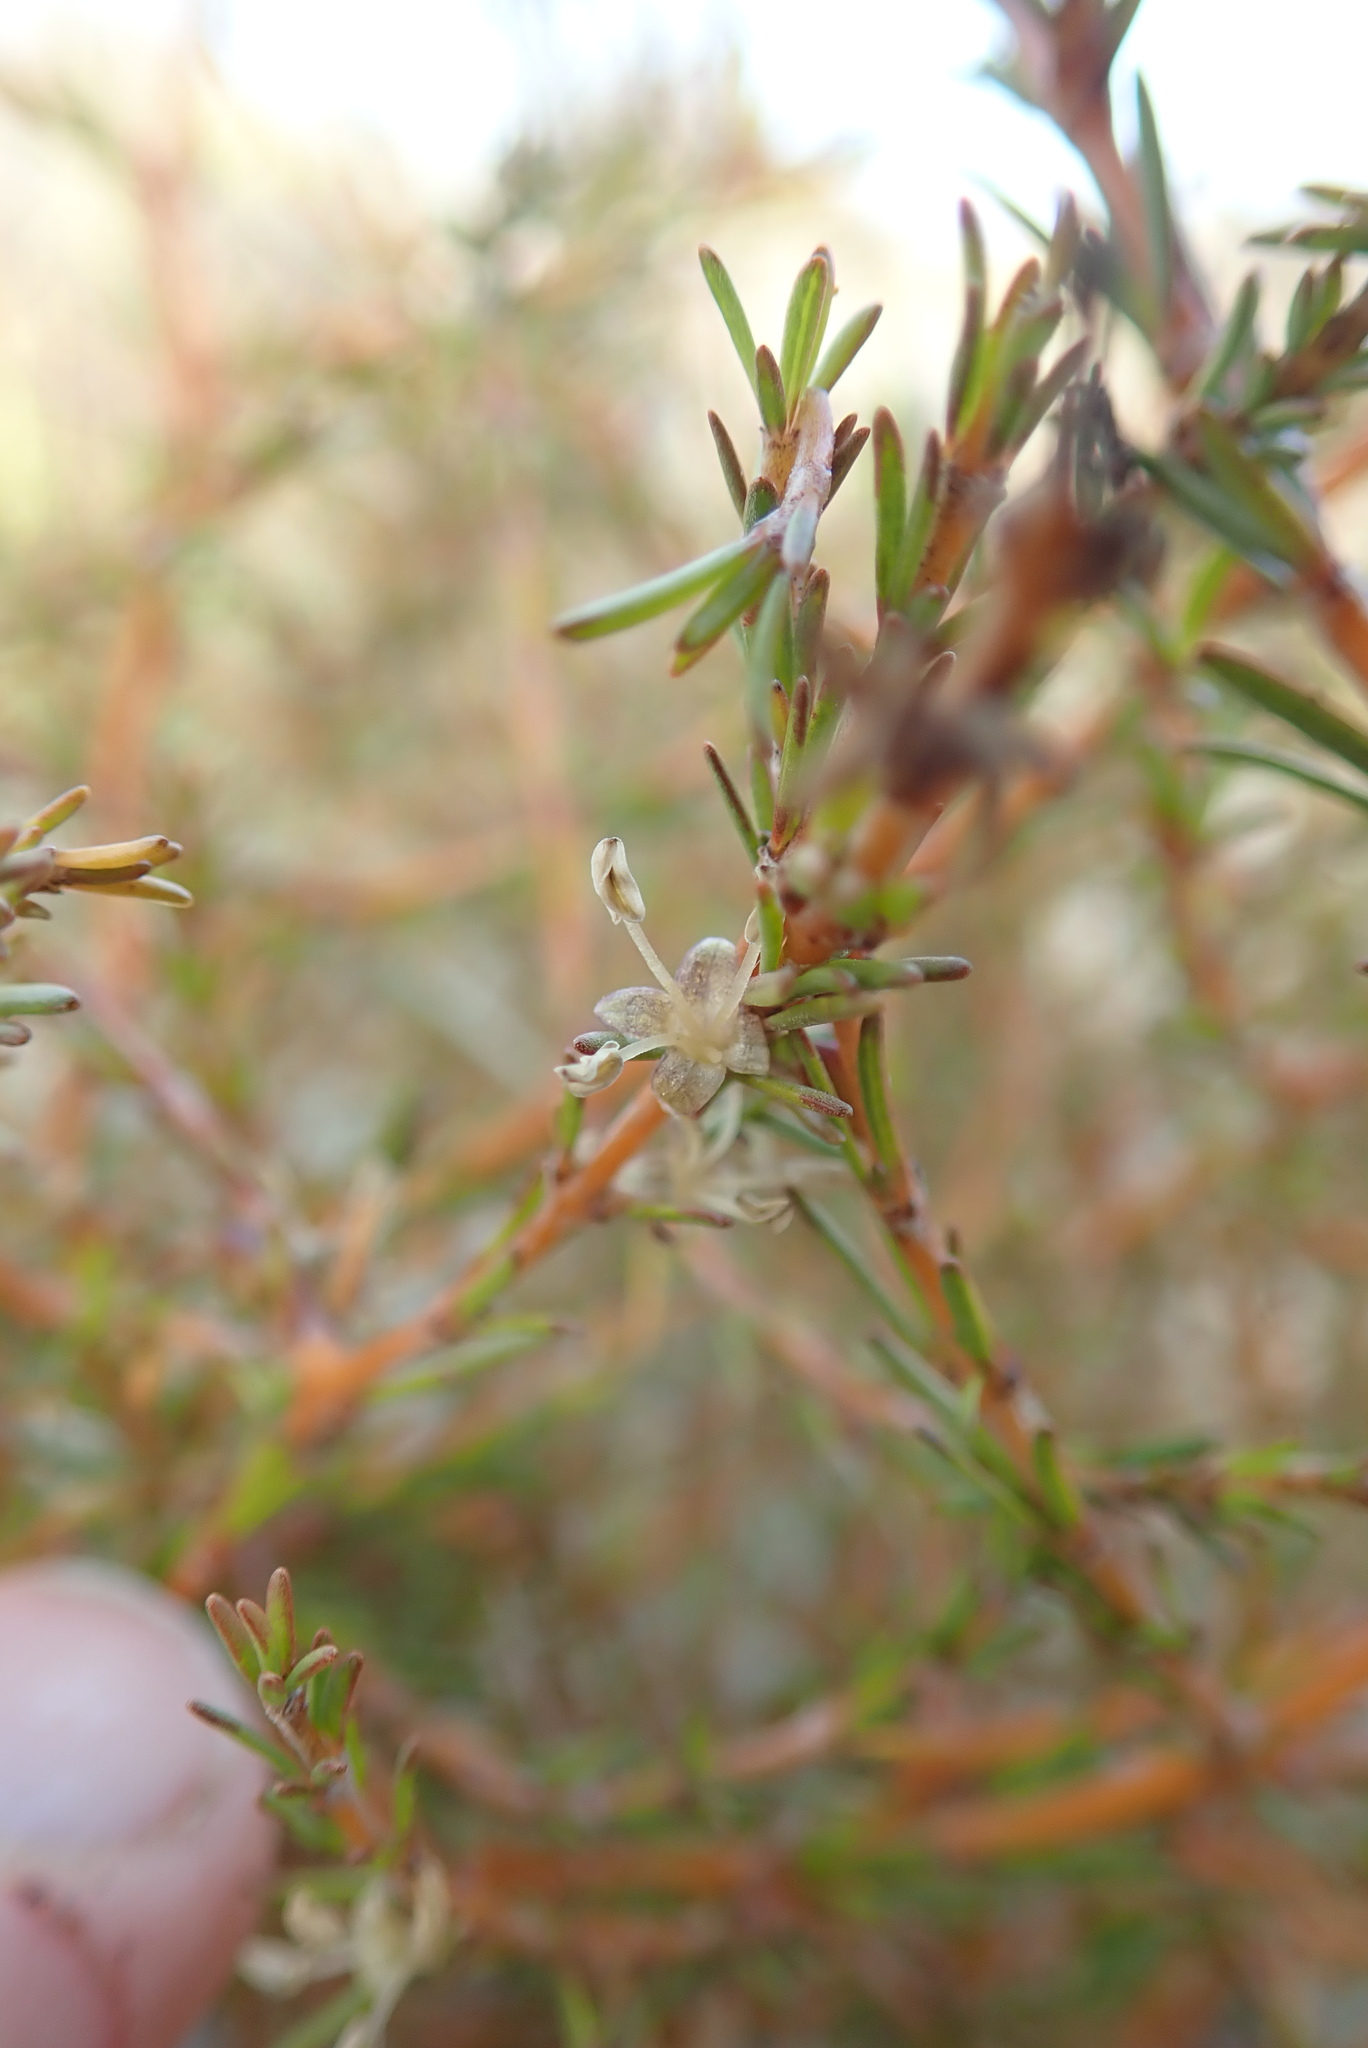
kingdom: Plantae
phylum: Tracheophyta
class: Magnoliopsida
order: Gentianales
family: Rubiaceae
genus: Coprosma
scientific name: Coprosma acerosa
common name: Sand coprosma
